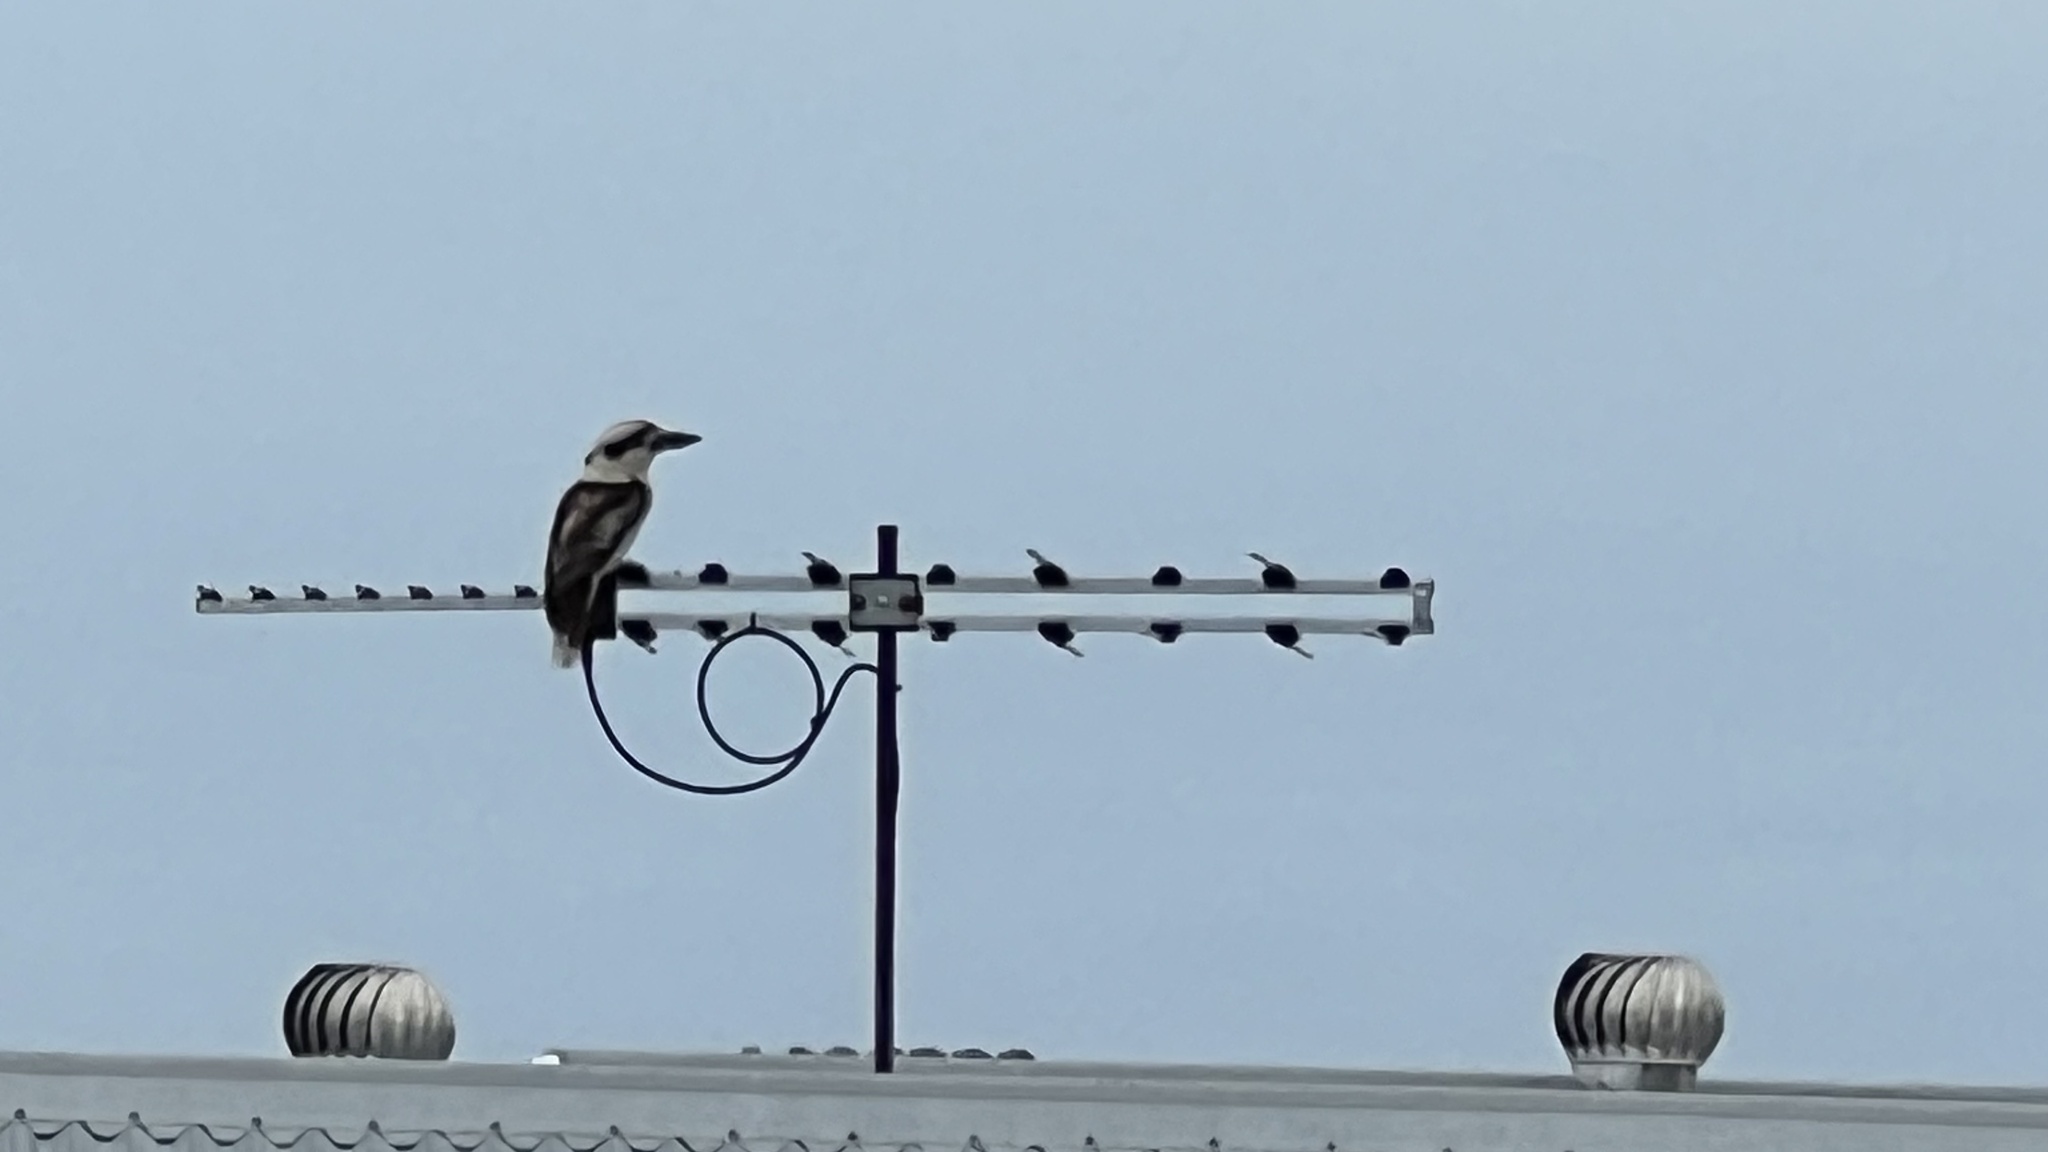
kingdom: Animalia
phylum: Chordata
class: Aves
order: Coraciiformes
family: Alcedinidae
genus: Dacelo
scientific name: Dacelo novaeguineae
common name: Laughing kookaburra
